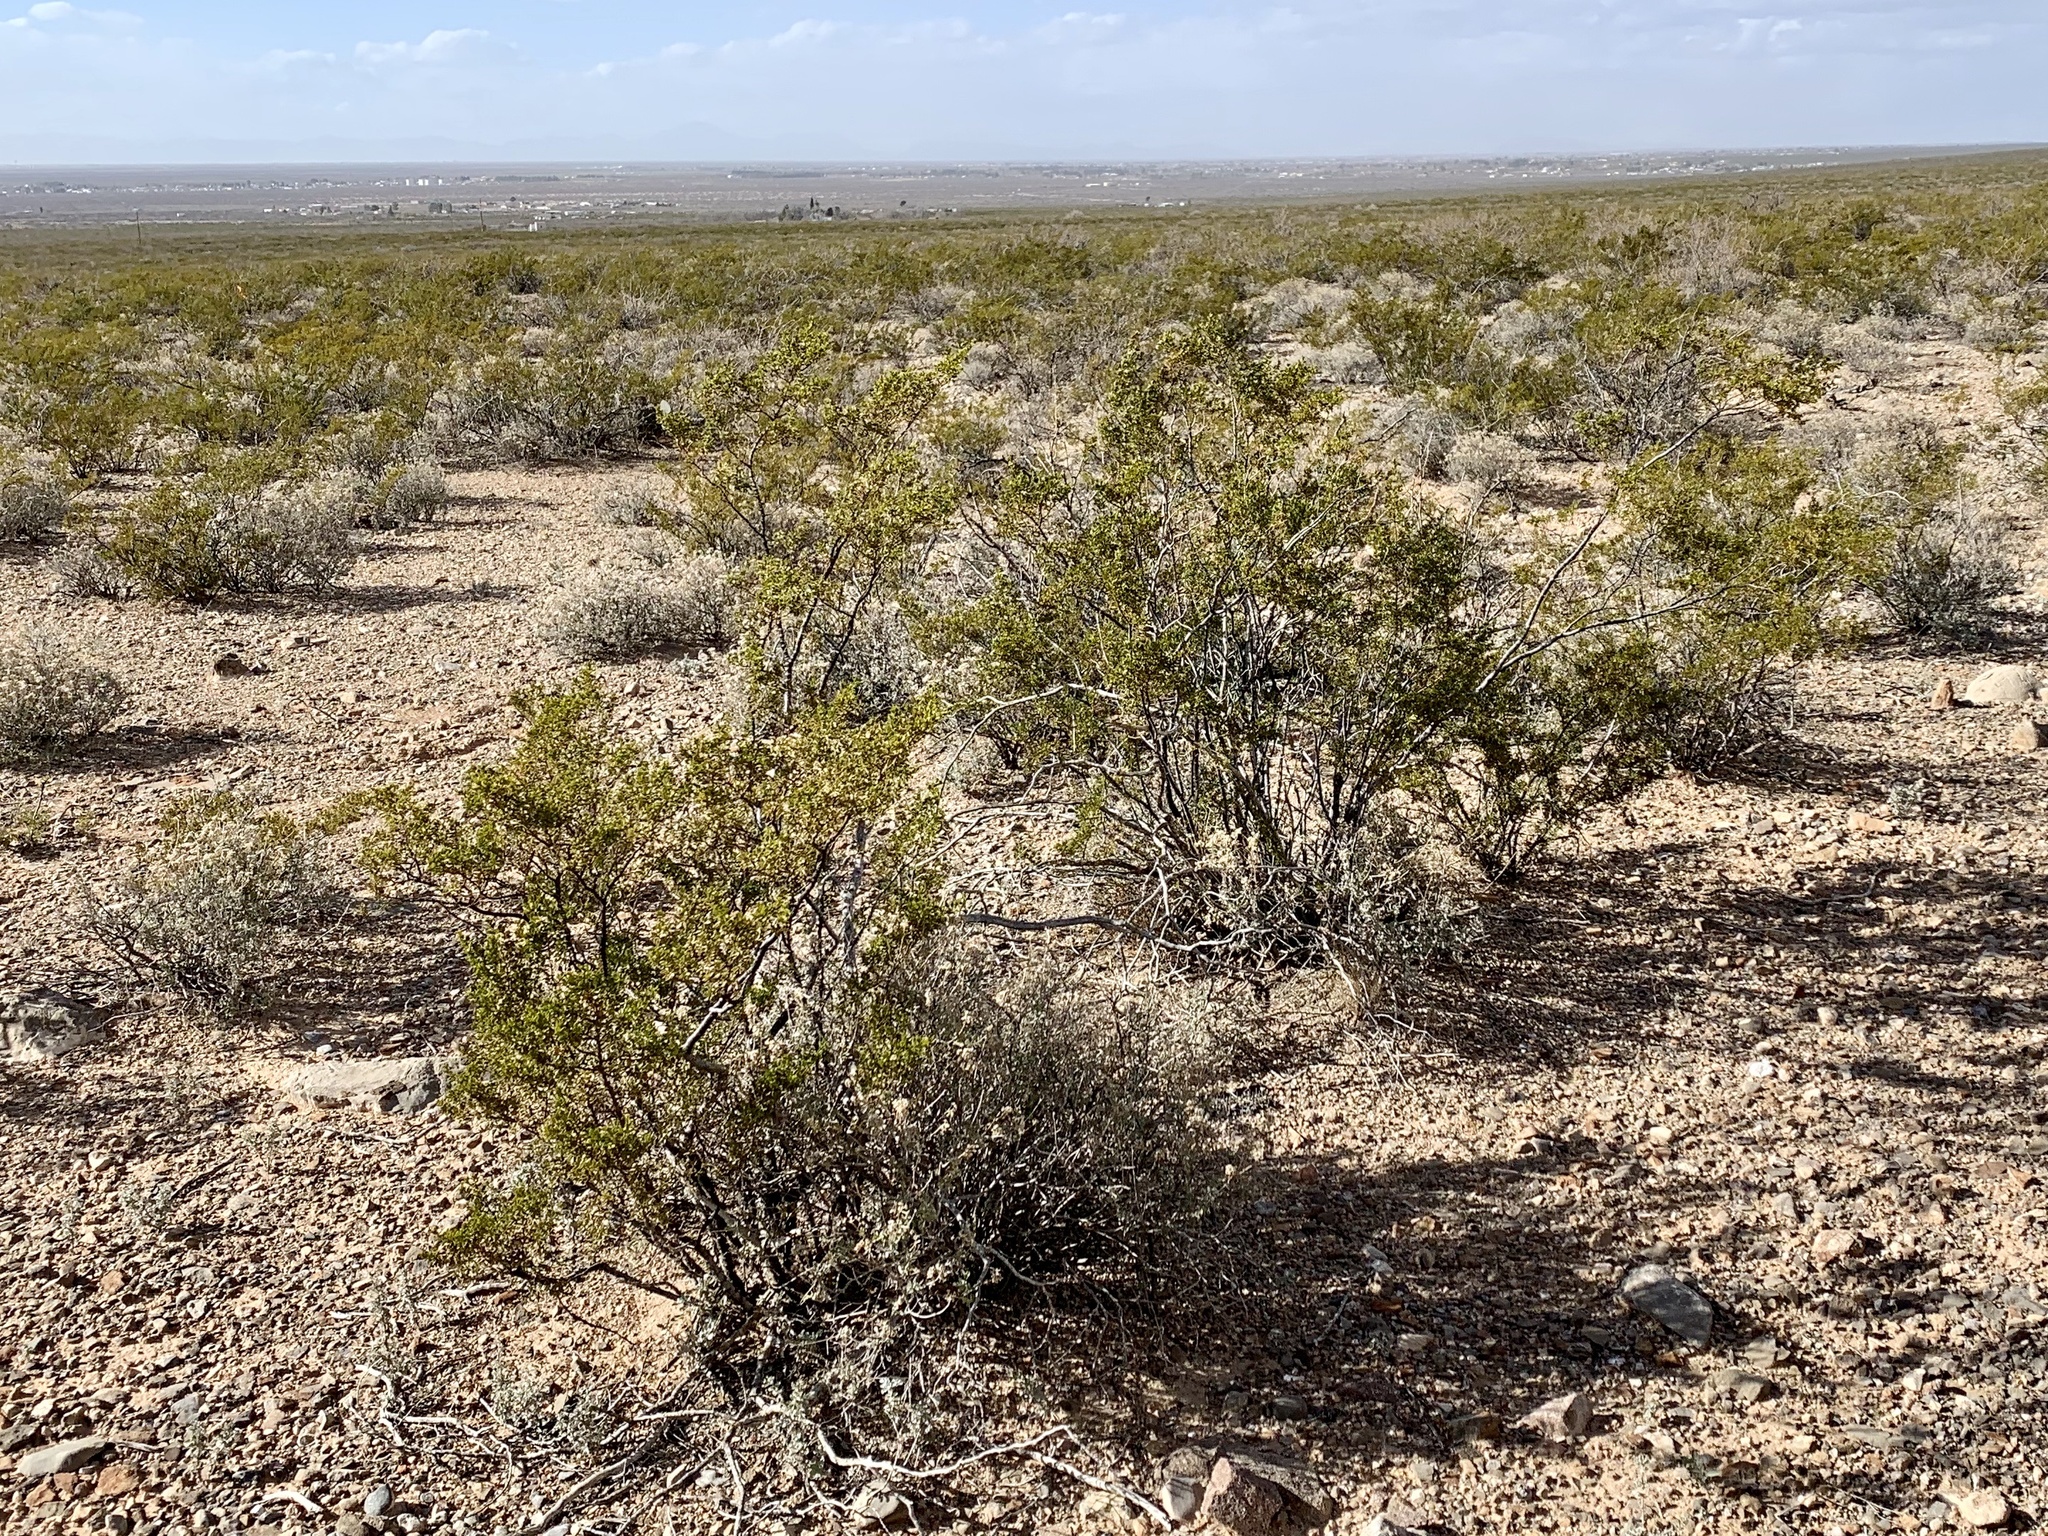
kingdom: Plantae
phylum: Tracheophyta
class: Magnoliopsida
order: Zygophyllales
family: Zygophyllaceae
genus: Larrea
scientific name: Larrea tridentata
